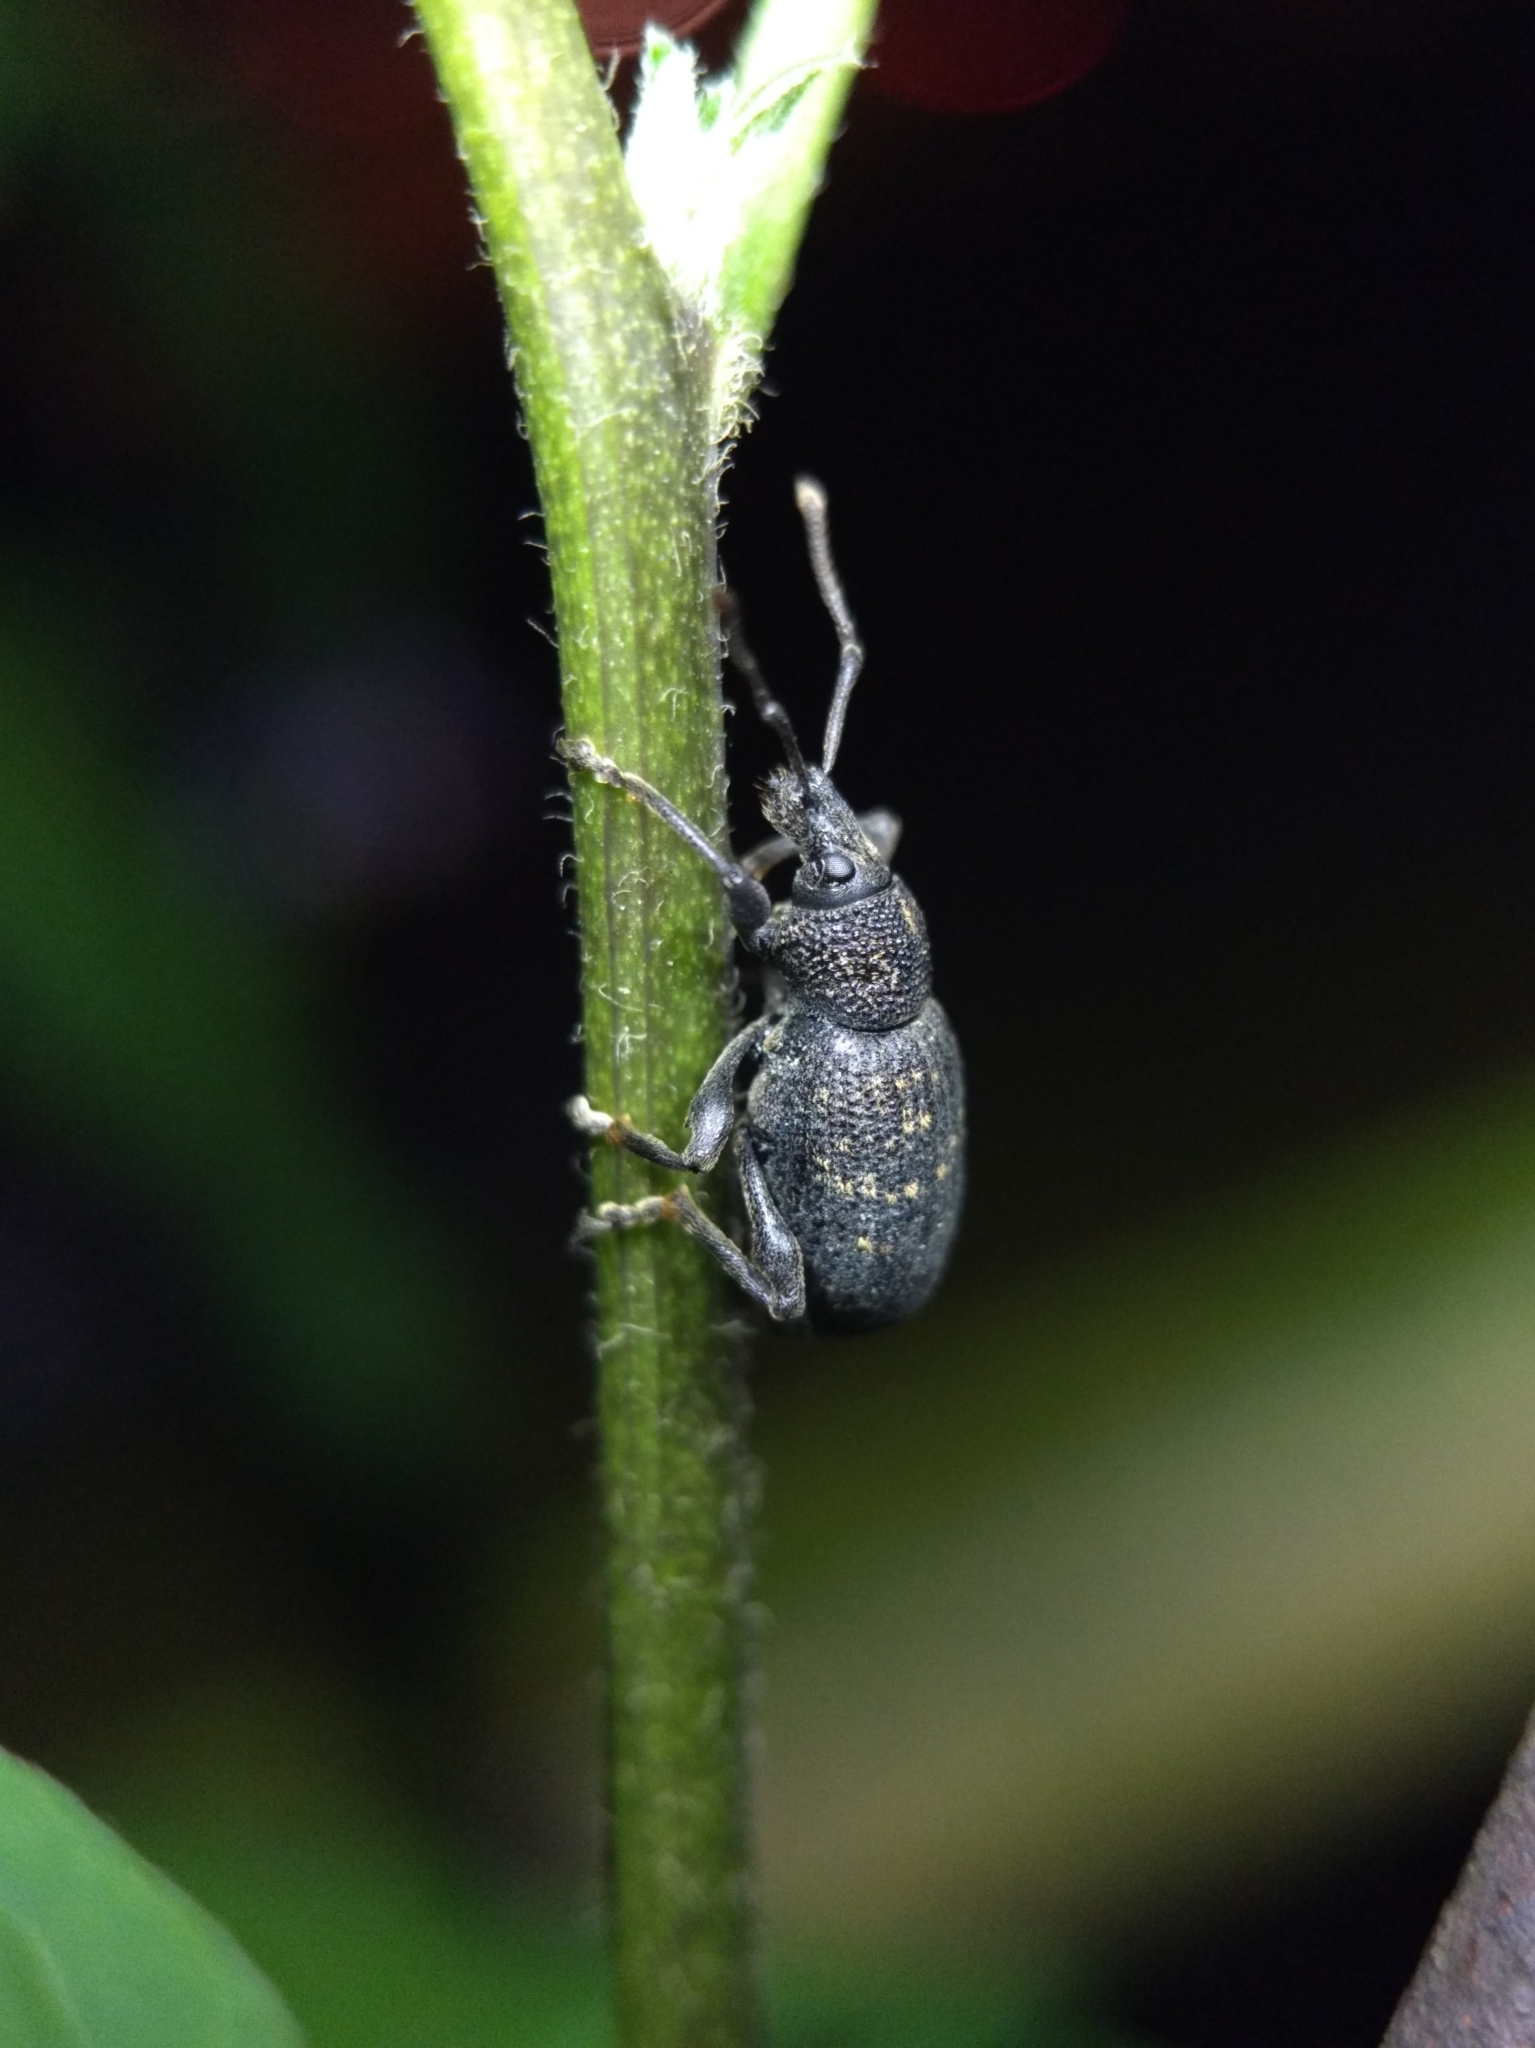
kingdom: Animalia
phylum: Arthropoda
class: Insecta
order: Coleoptera
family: Curculionidae
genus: Otiorhynchus
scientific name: Otiorhynchus sulcatus
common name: Black vine weevil
